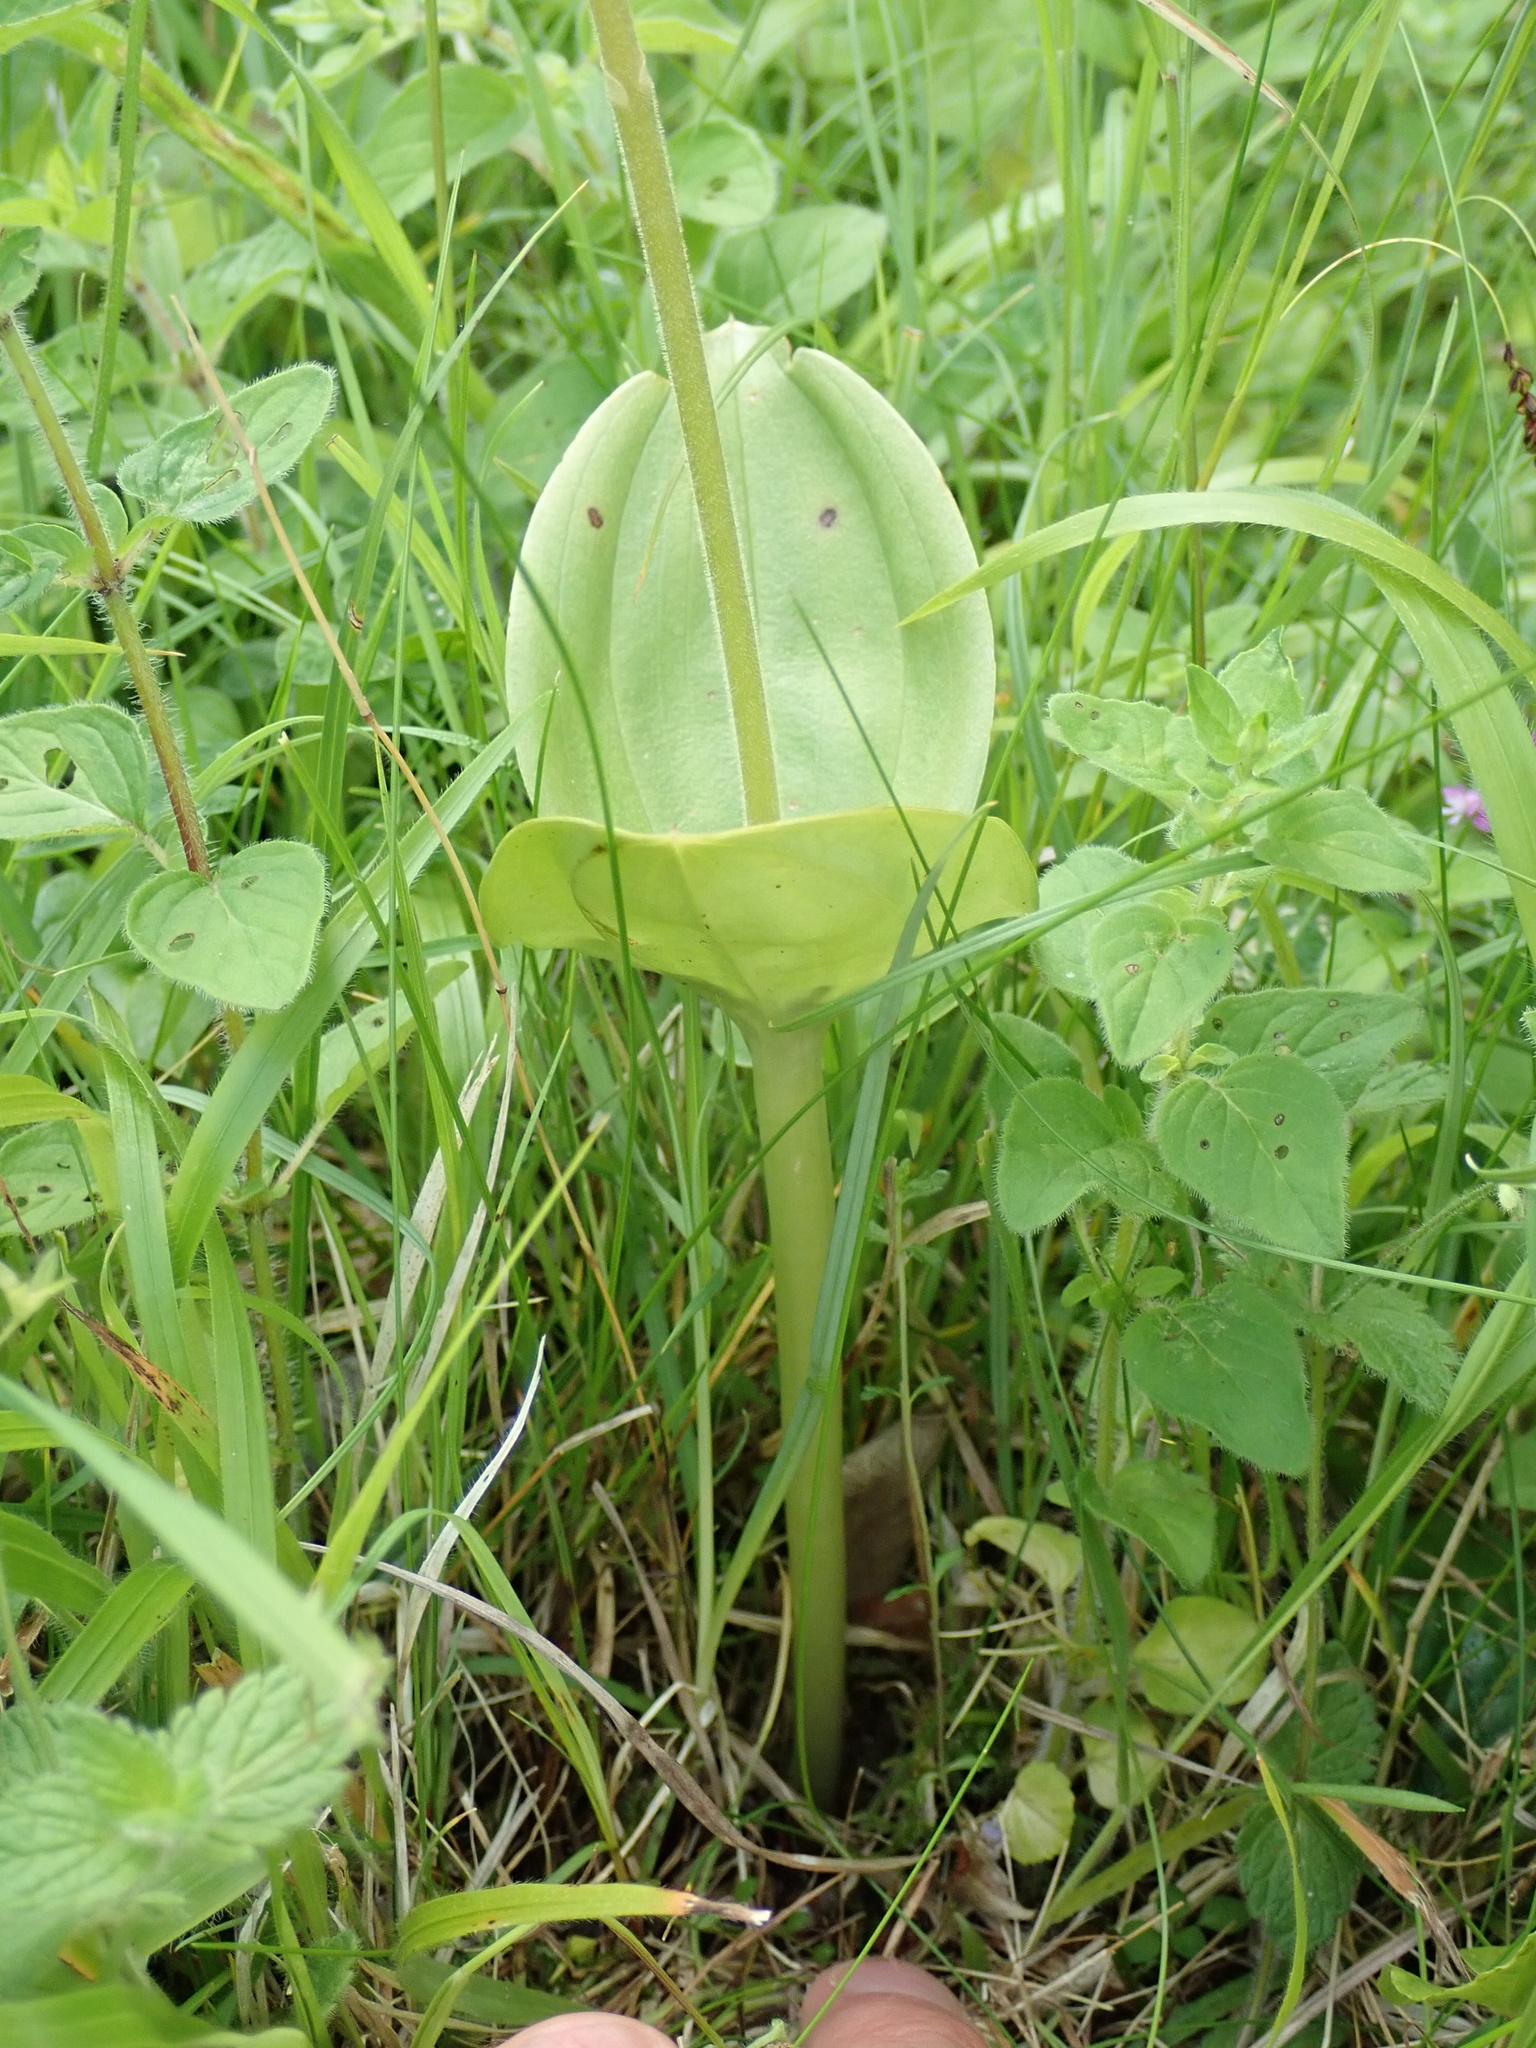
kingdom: Plantae
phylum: Tracheophyta
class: Liliopsida
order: Asparagales
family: Orchidaceae
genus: Neottia
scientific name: Neottia ovata
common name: Common twayblade
